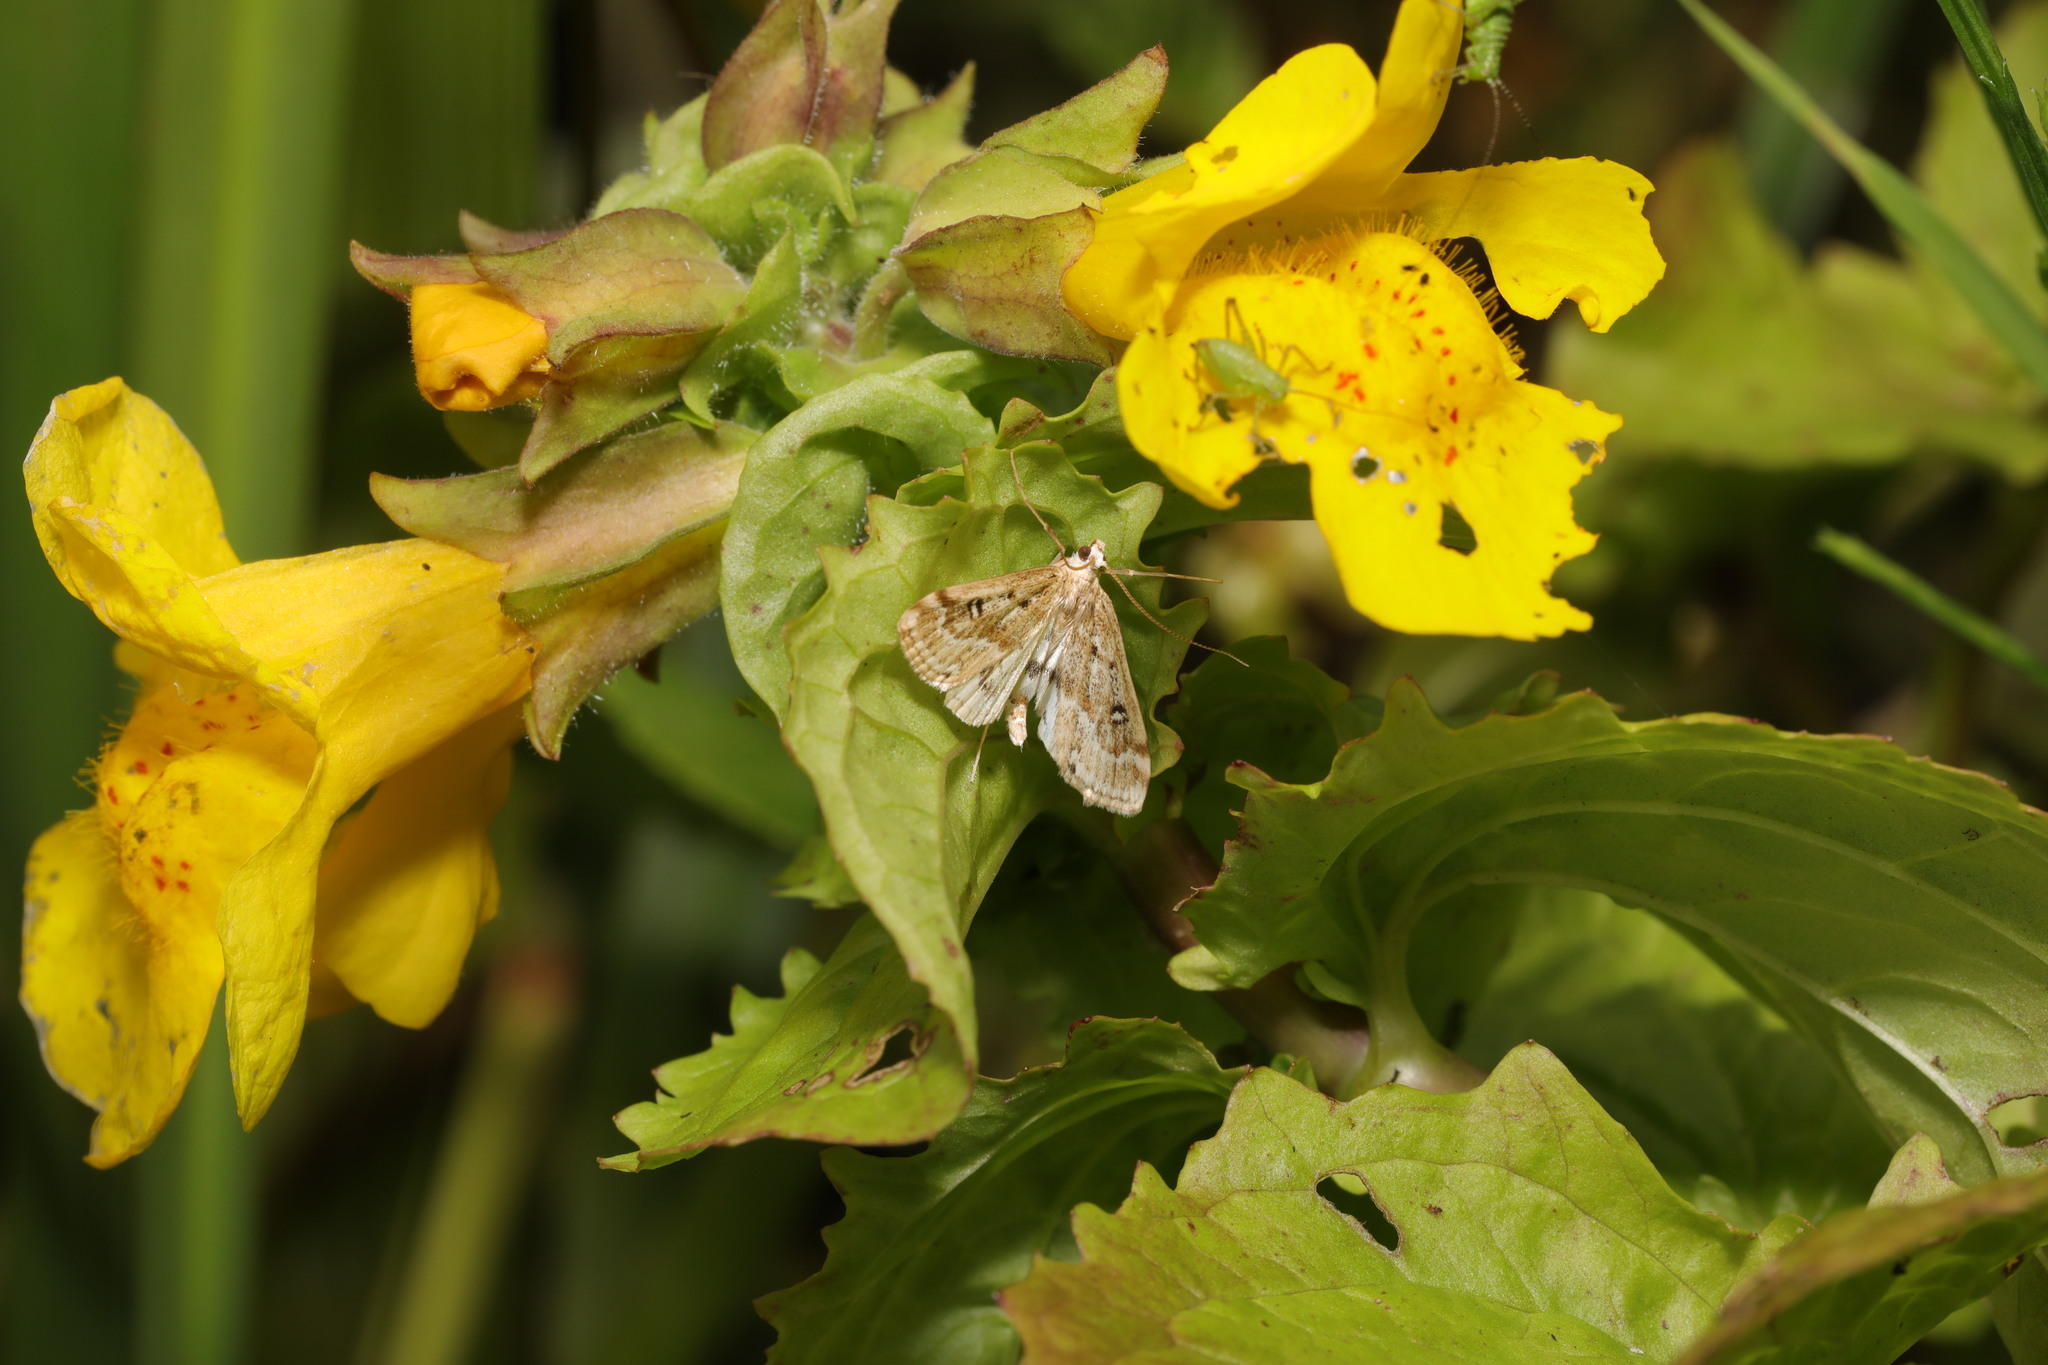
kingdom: Animalia
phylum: Arthropoda
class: Insecta
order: Lepidoptera
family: Crambidae
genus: Parapoynx
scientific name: Parapoynx stratiotata
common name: Ringed china-mark
